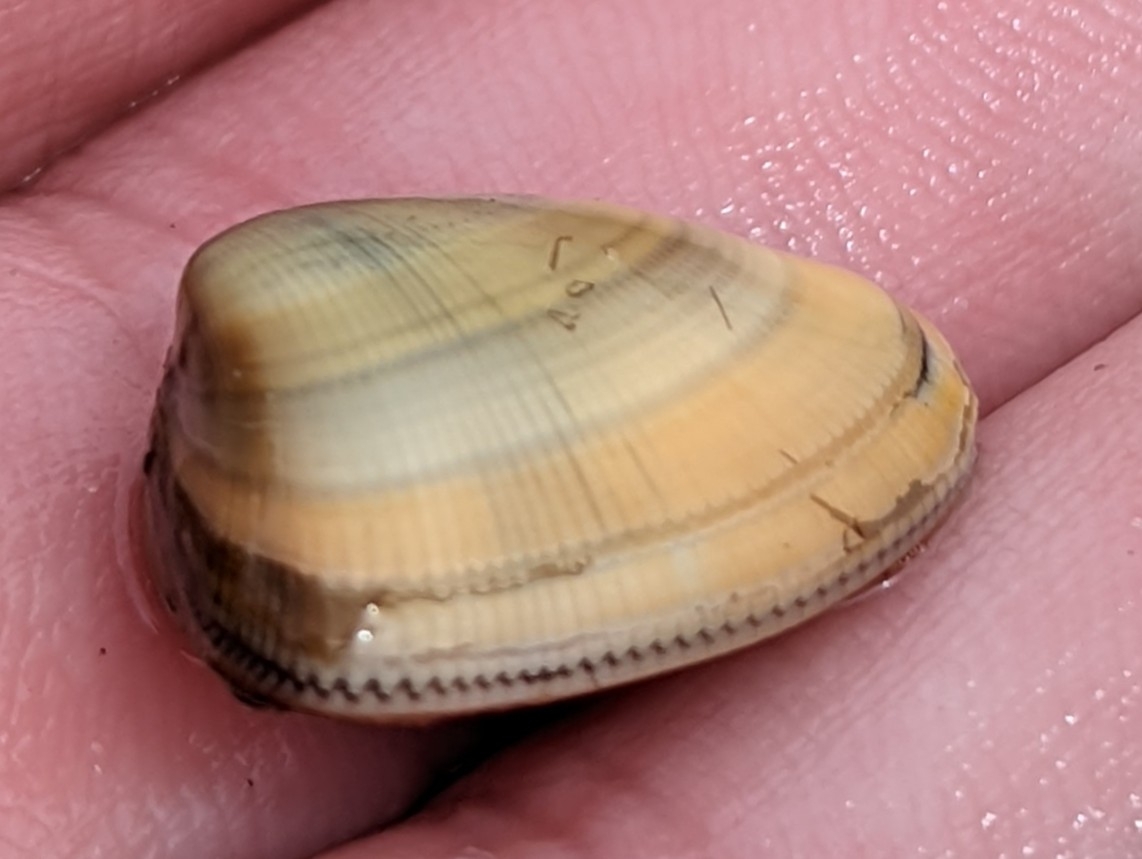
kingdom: Animalia
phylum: Mollusca
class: Bivalvia
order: Cardiida
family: Donacidae
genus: Donax
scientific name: Donax gouldii
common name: Gould beanclam
